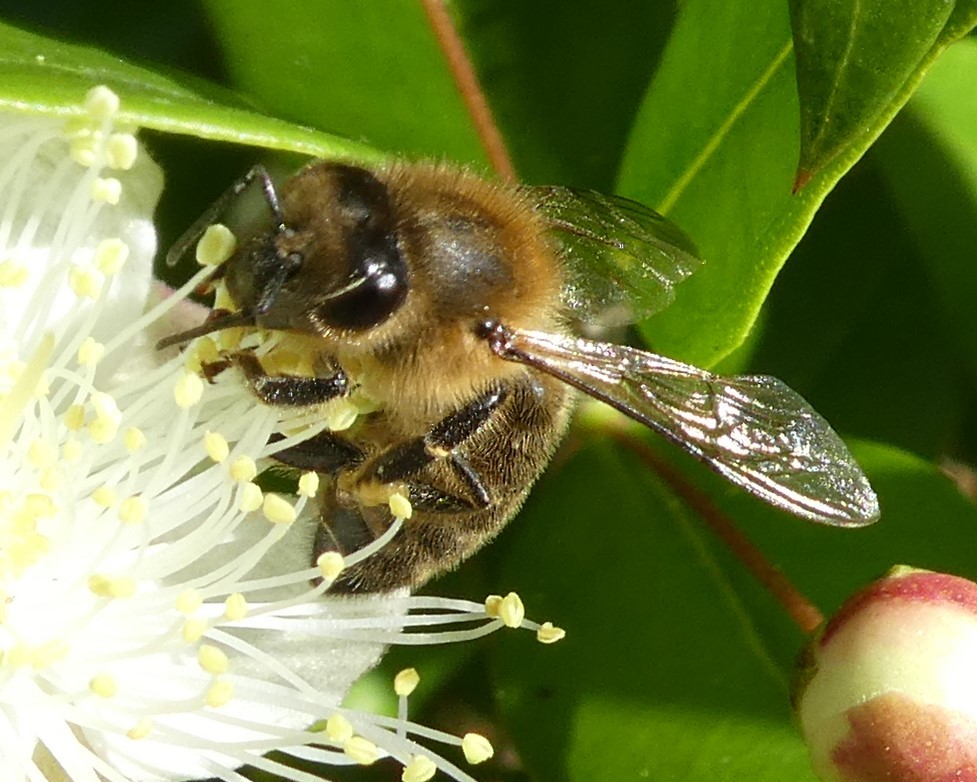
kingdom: Animalia
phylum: Arthropoda
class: Insecta
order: Hymenoptera
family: Apidae
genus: Apis
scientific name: Apis mellifera
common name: Honey bee
